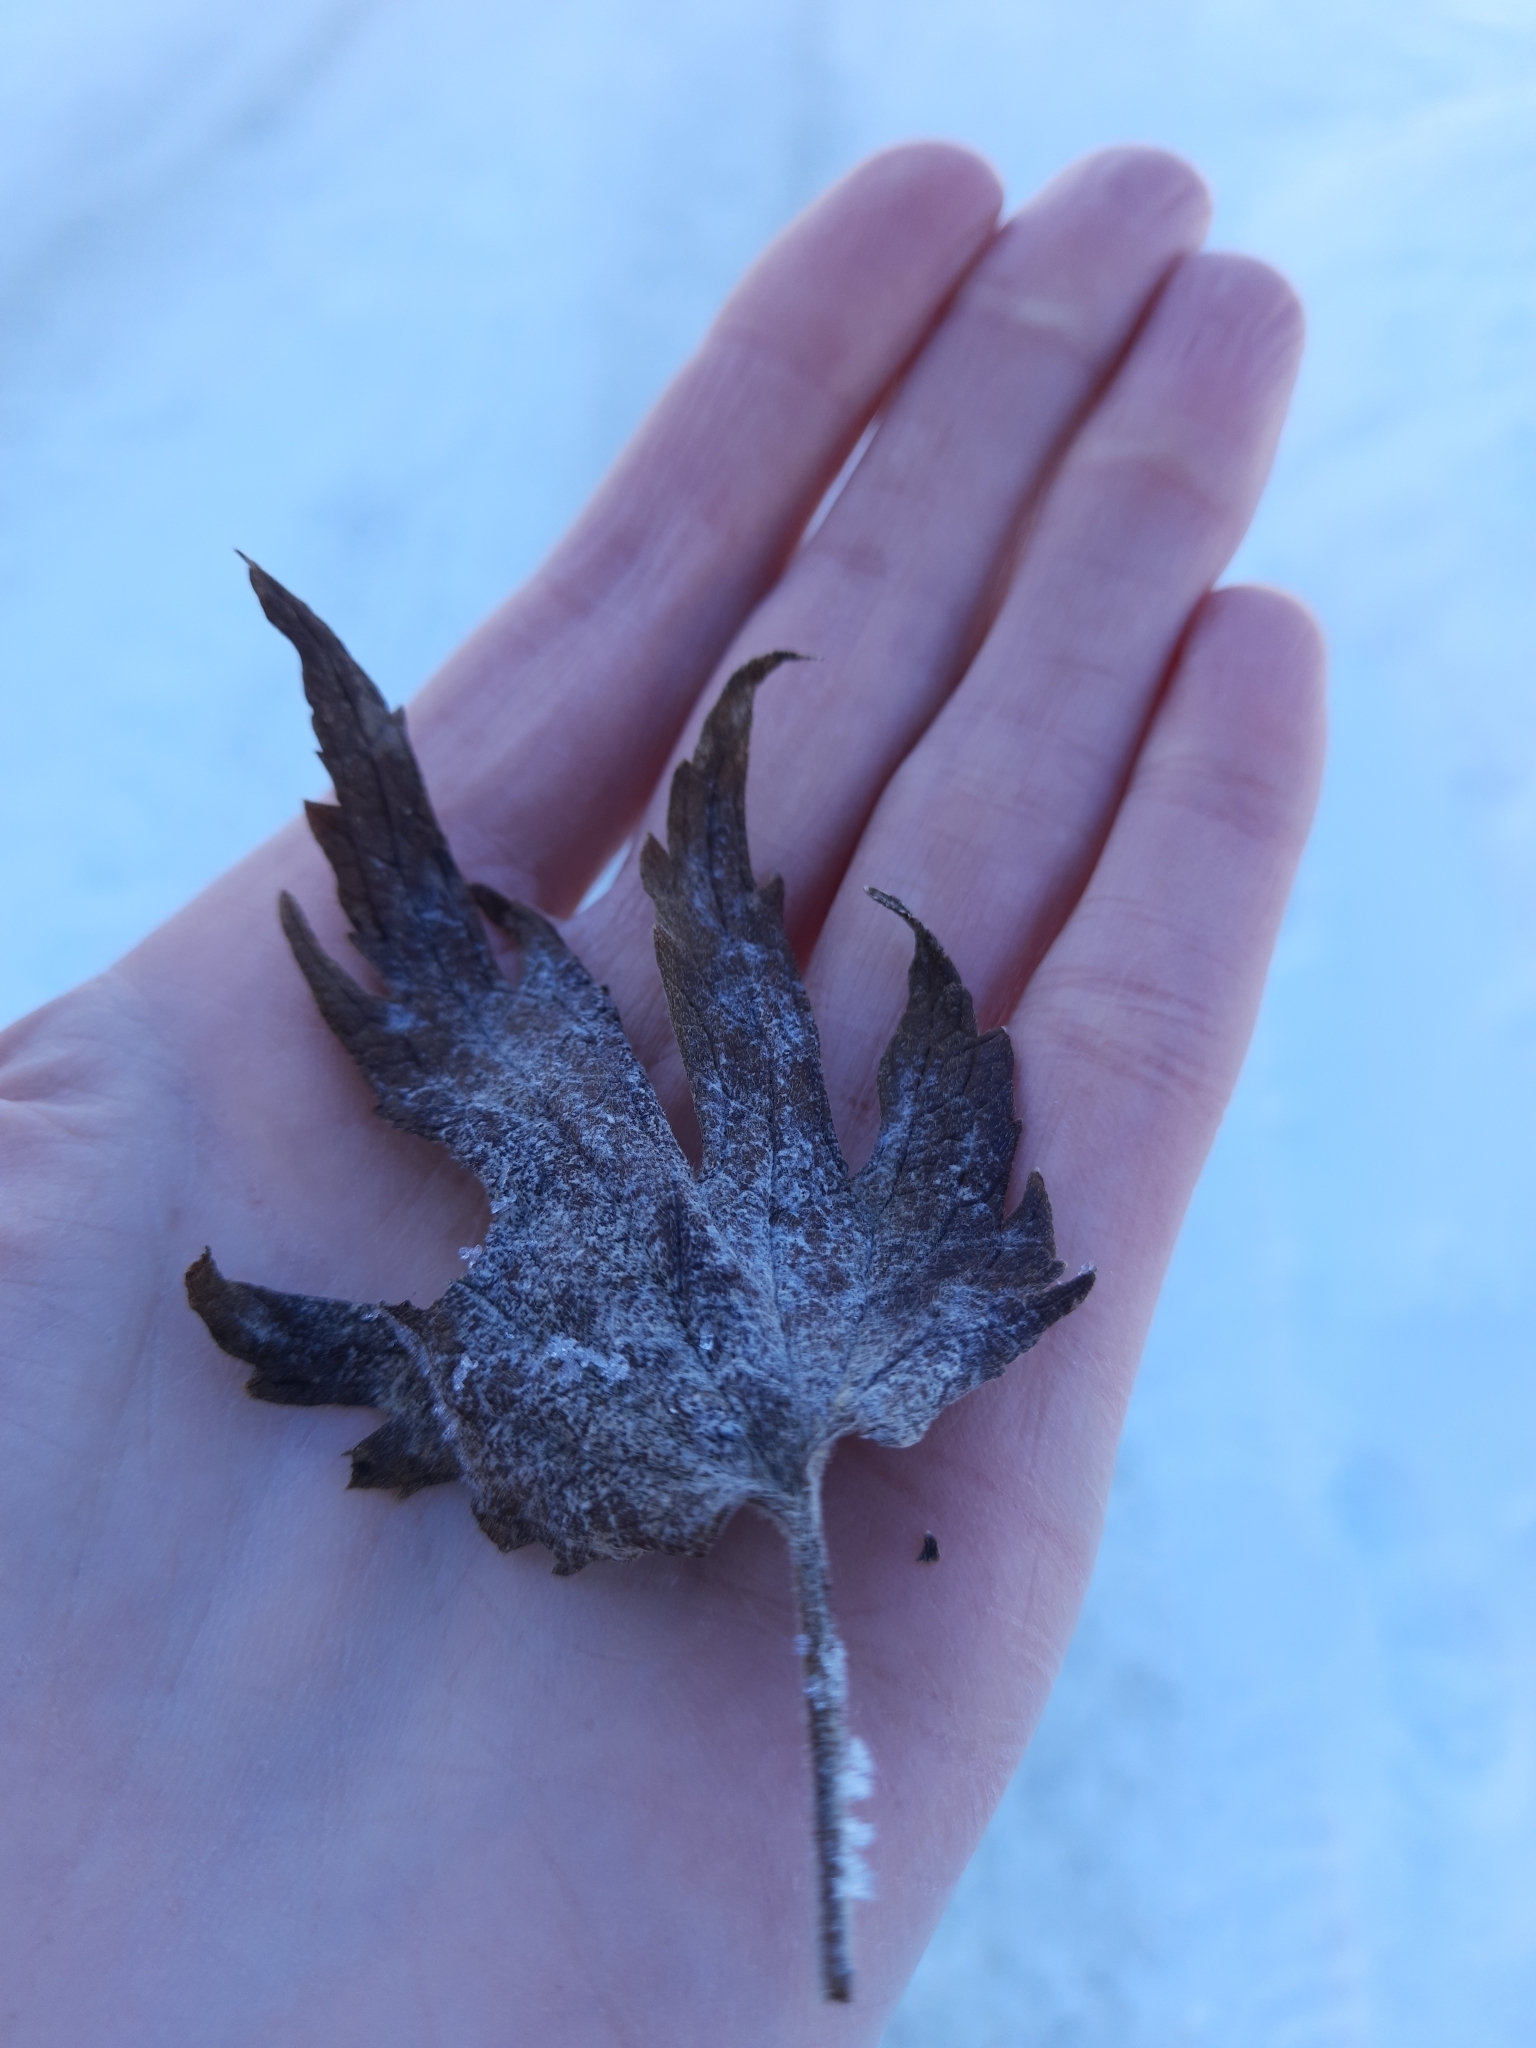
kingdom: Plantae
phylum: Tracheophyta
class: Magnoliopsida
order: Lamiales
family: Lamiaceae
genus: Leonurus
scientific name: Leonurus quinquelobatus
